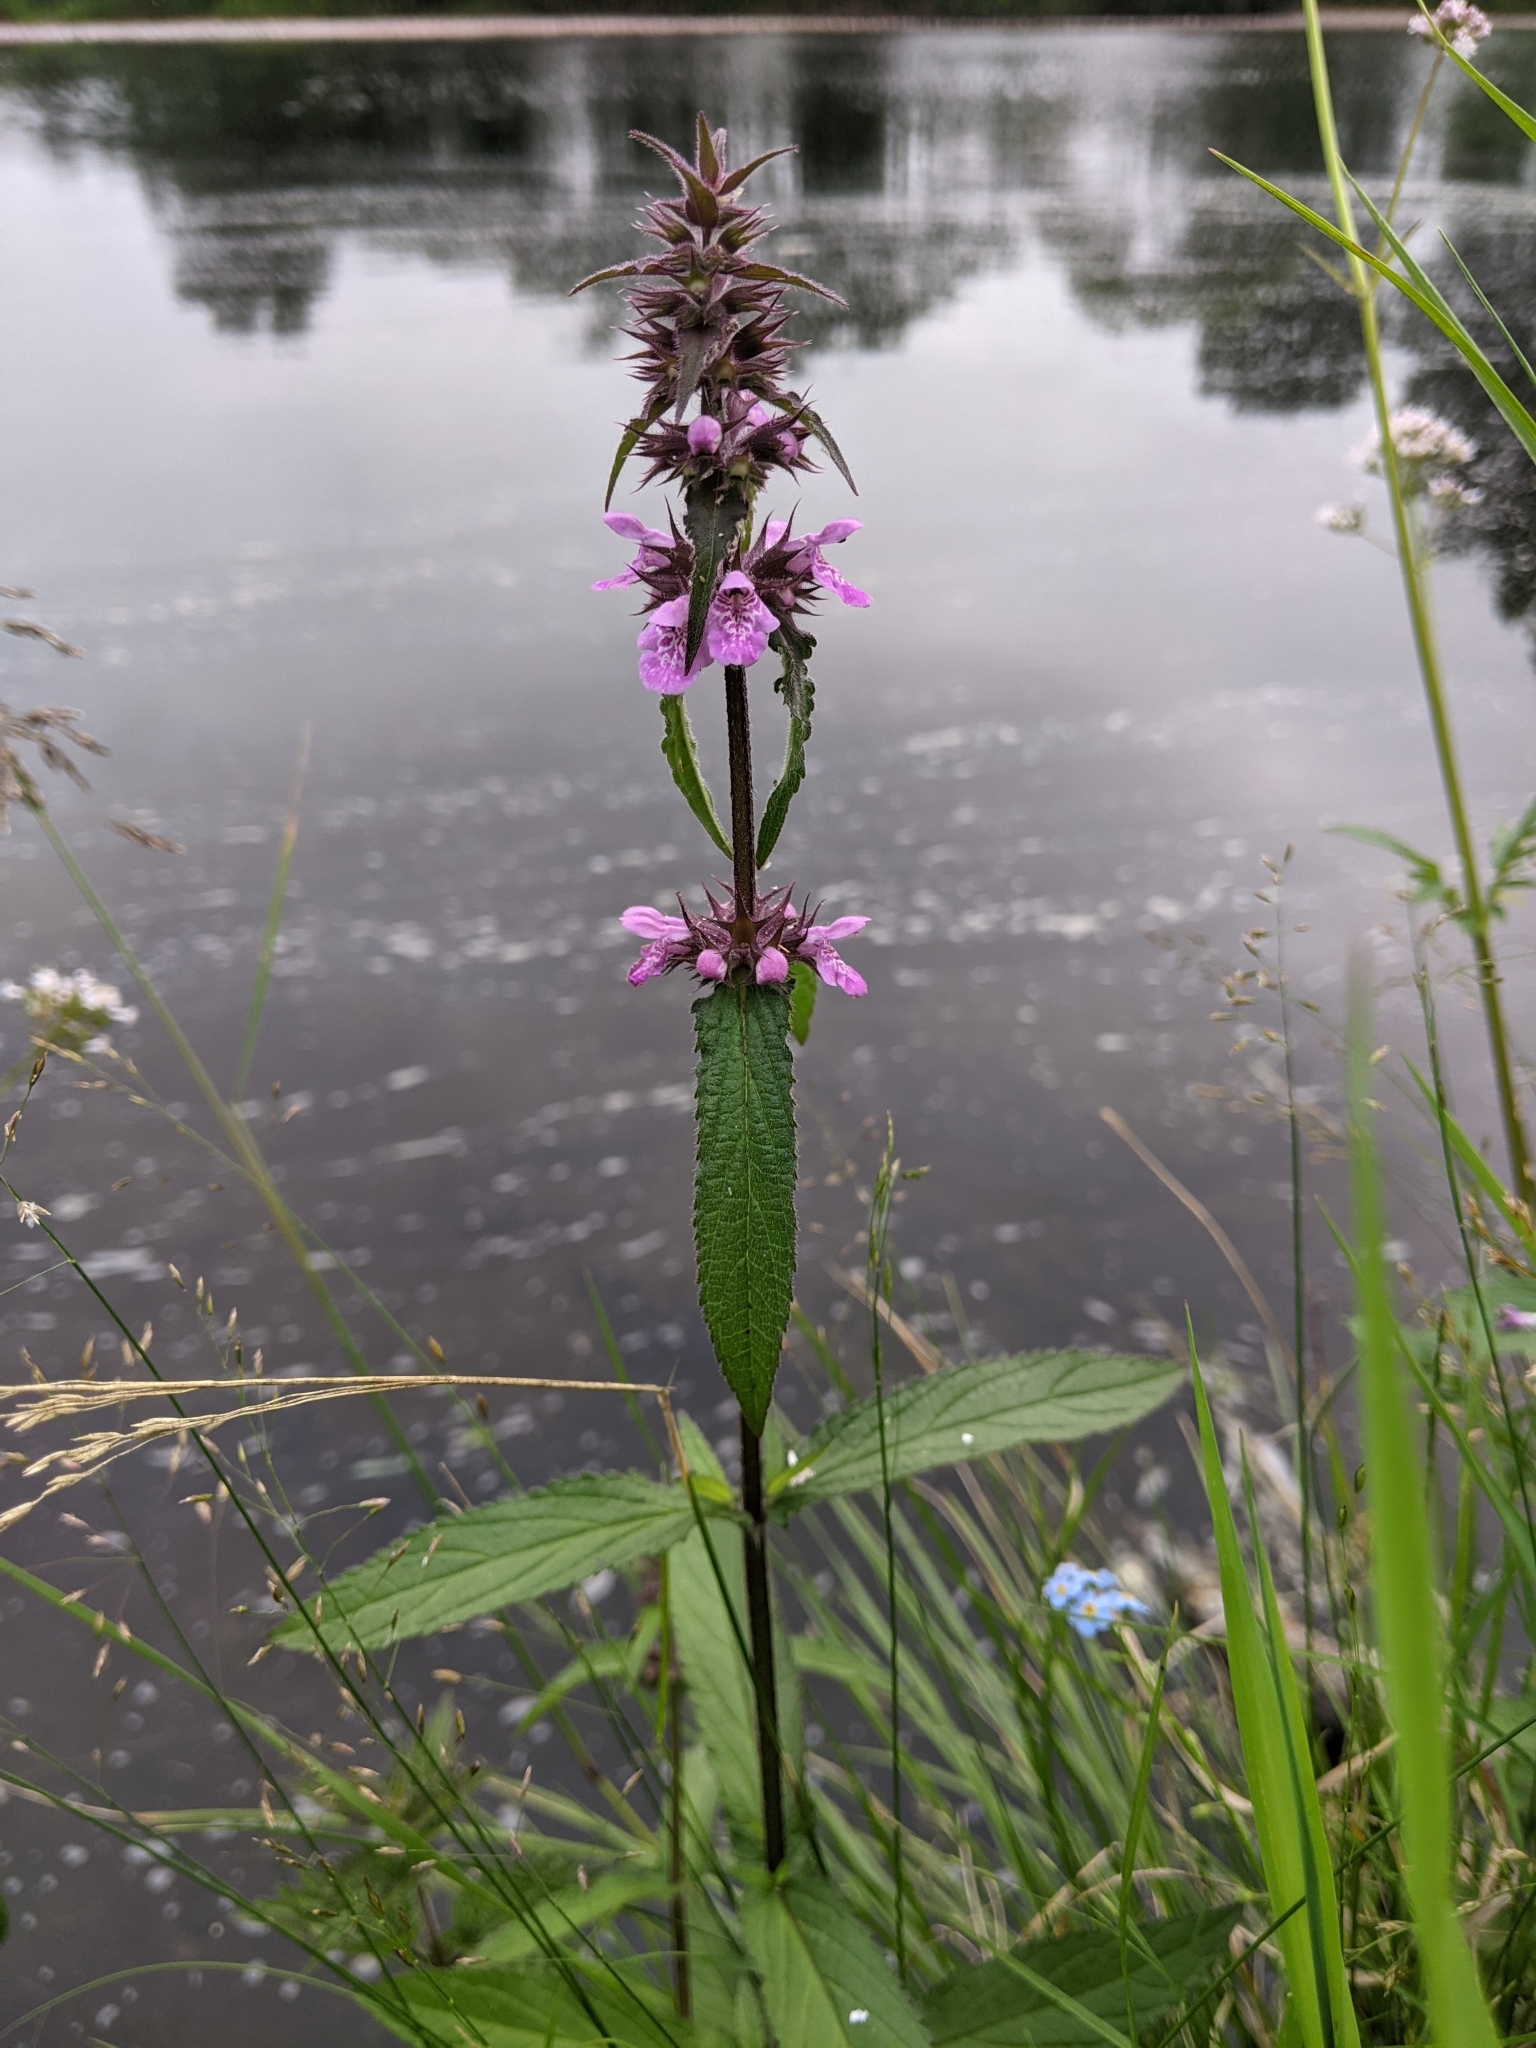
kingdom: Plantae
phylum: Tracheophyta
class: Magnoliopsida
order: Lamiales
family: Lamiaceae
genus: Stachys
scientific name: Stachys palustris
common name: Marsh woundwort
